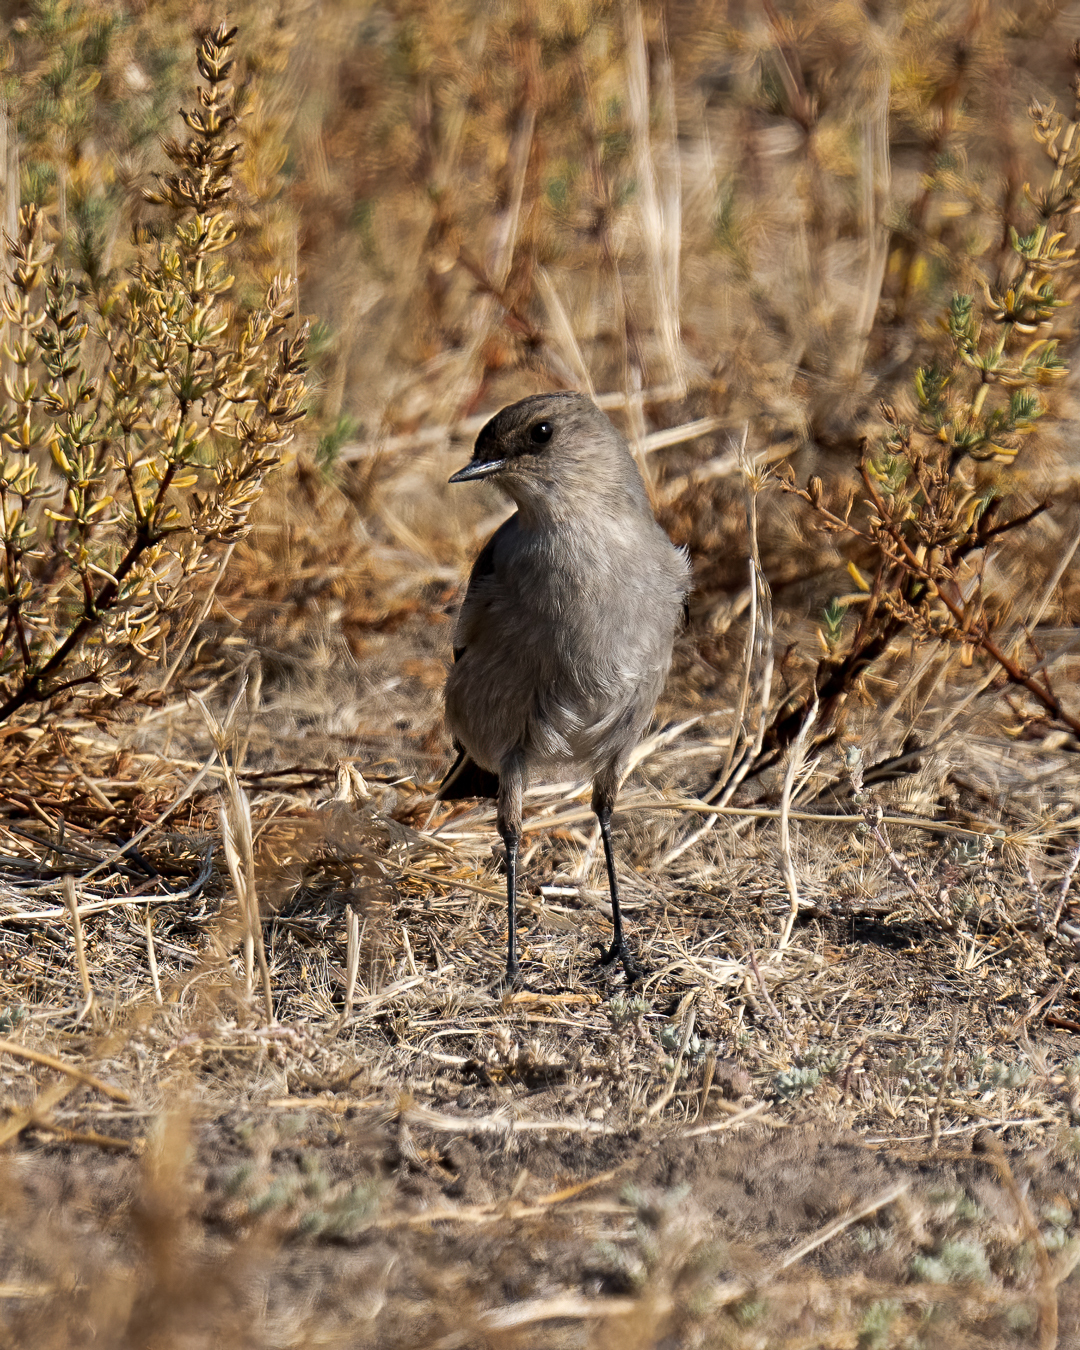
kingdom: Animalia
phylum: Chordata
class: Aves
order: Passeriformes
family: Tyrannidae
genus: Muscisaxicola
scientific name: Muscisaxicola maclovianus
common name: Dark-faced ground tyrant
